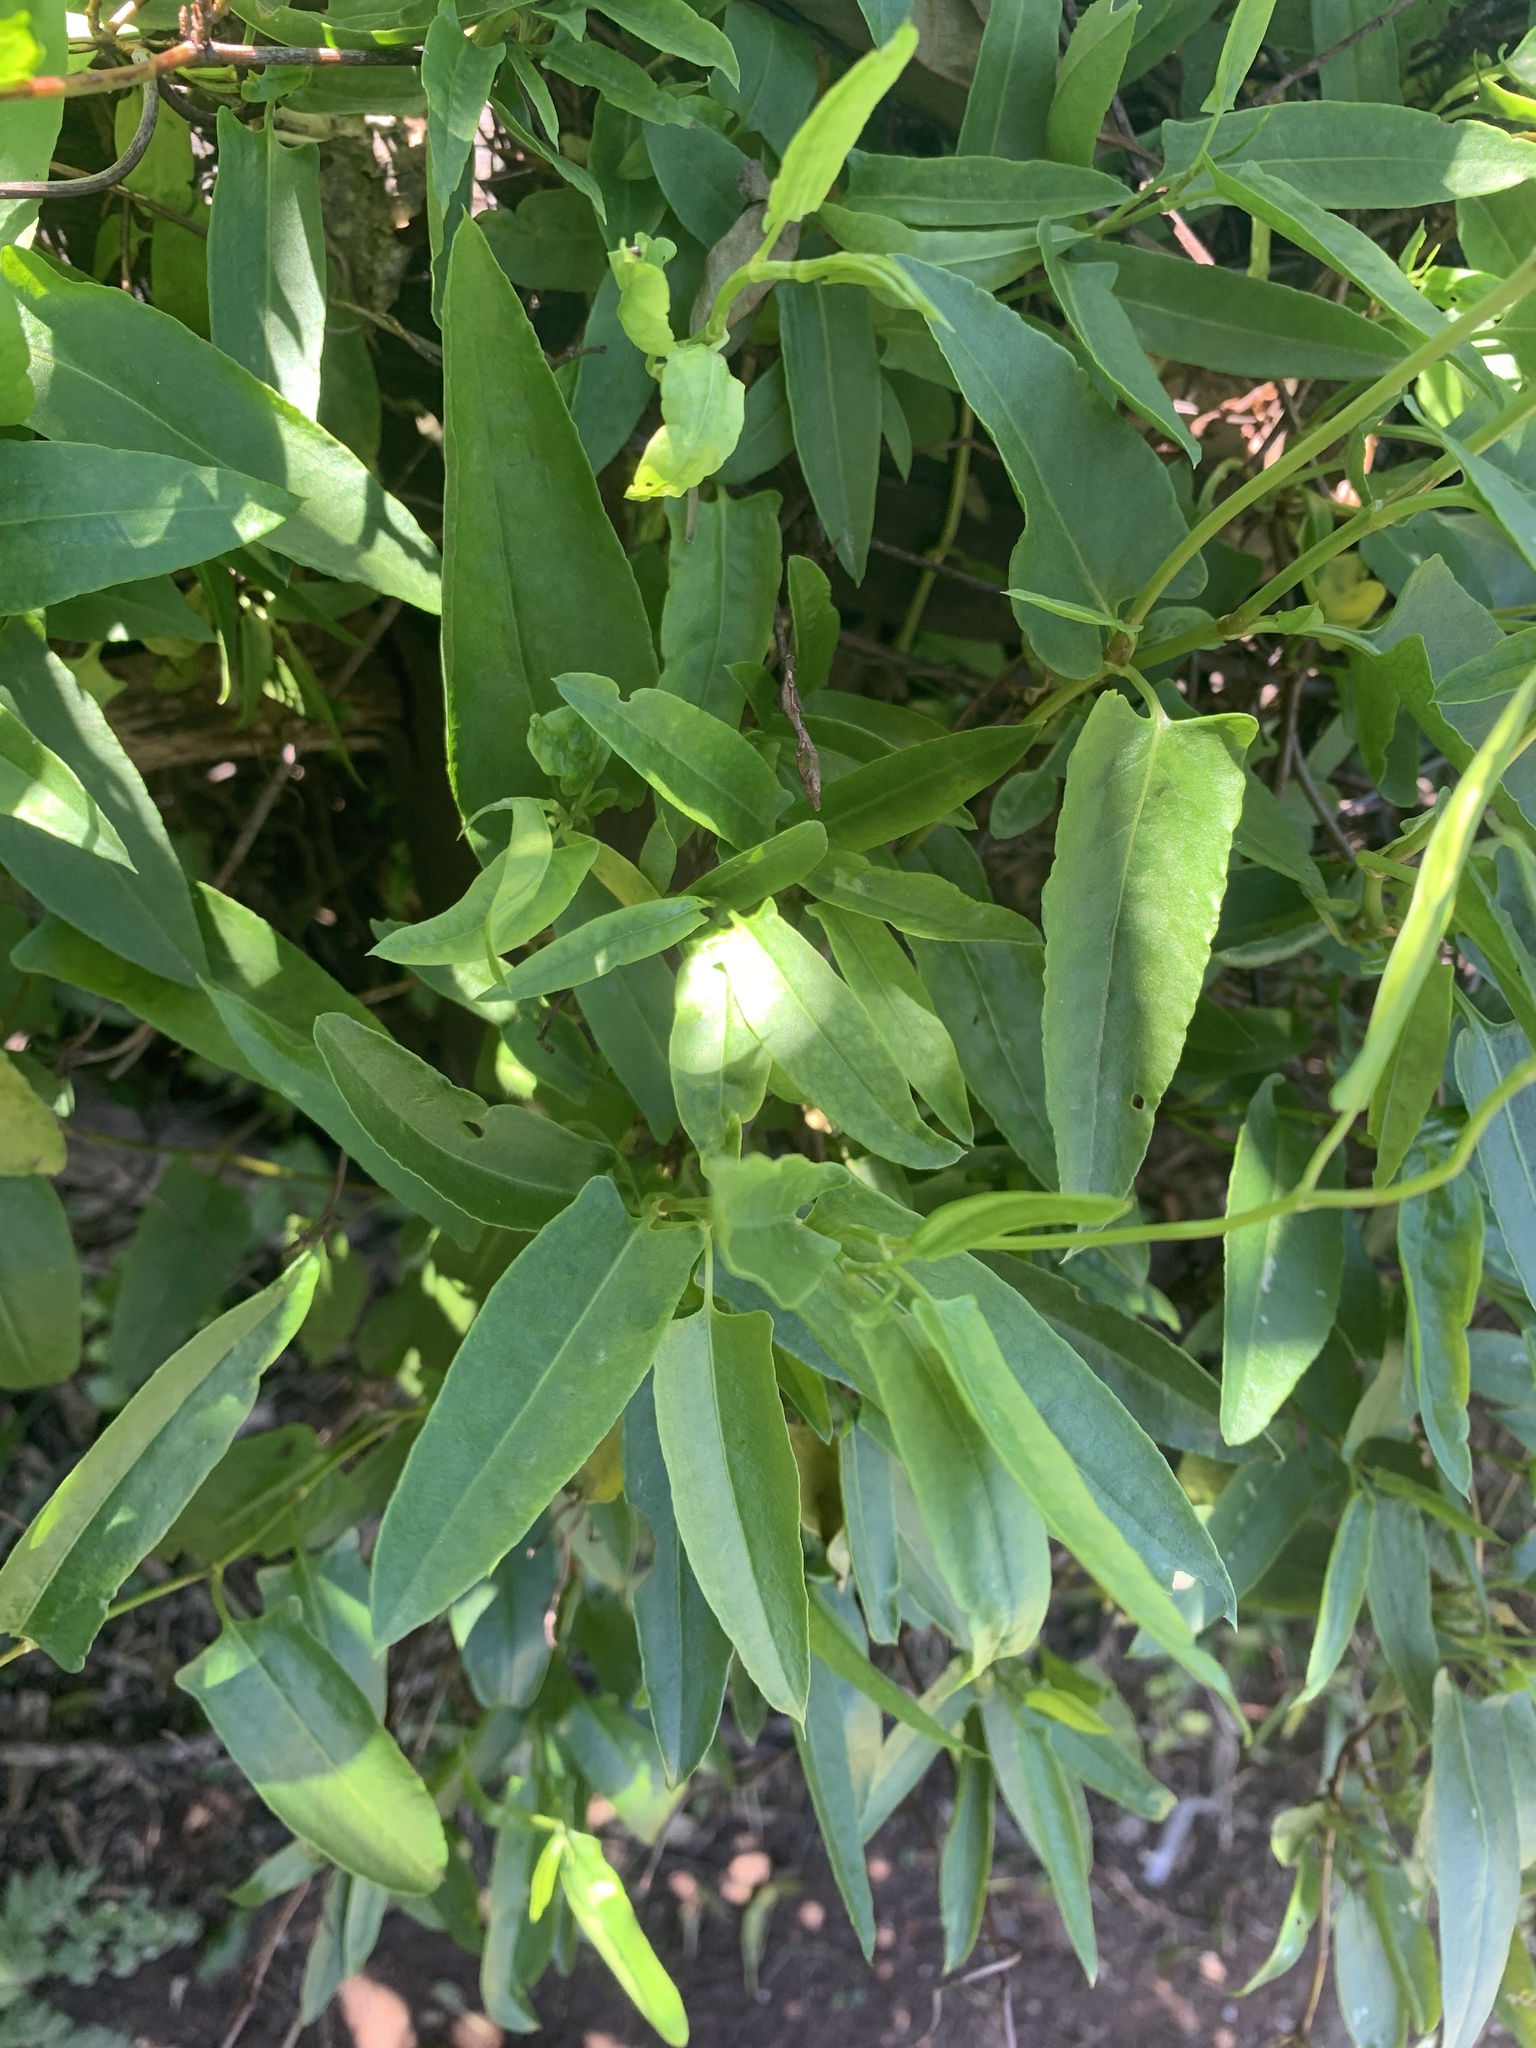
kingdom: Plantae
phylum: Tracheophyta
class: Magnoliopsida
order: Caryophyllales
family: Polygonaceae
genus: Muehlenbeckia
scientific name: Muehlenbeckia sagittifolia
